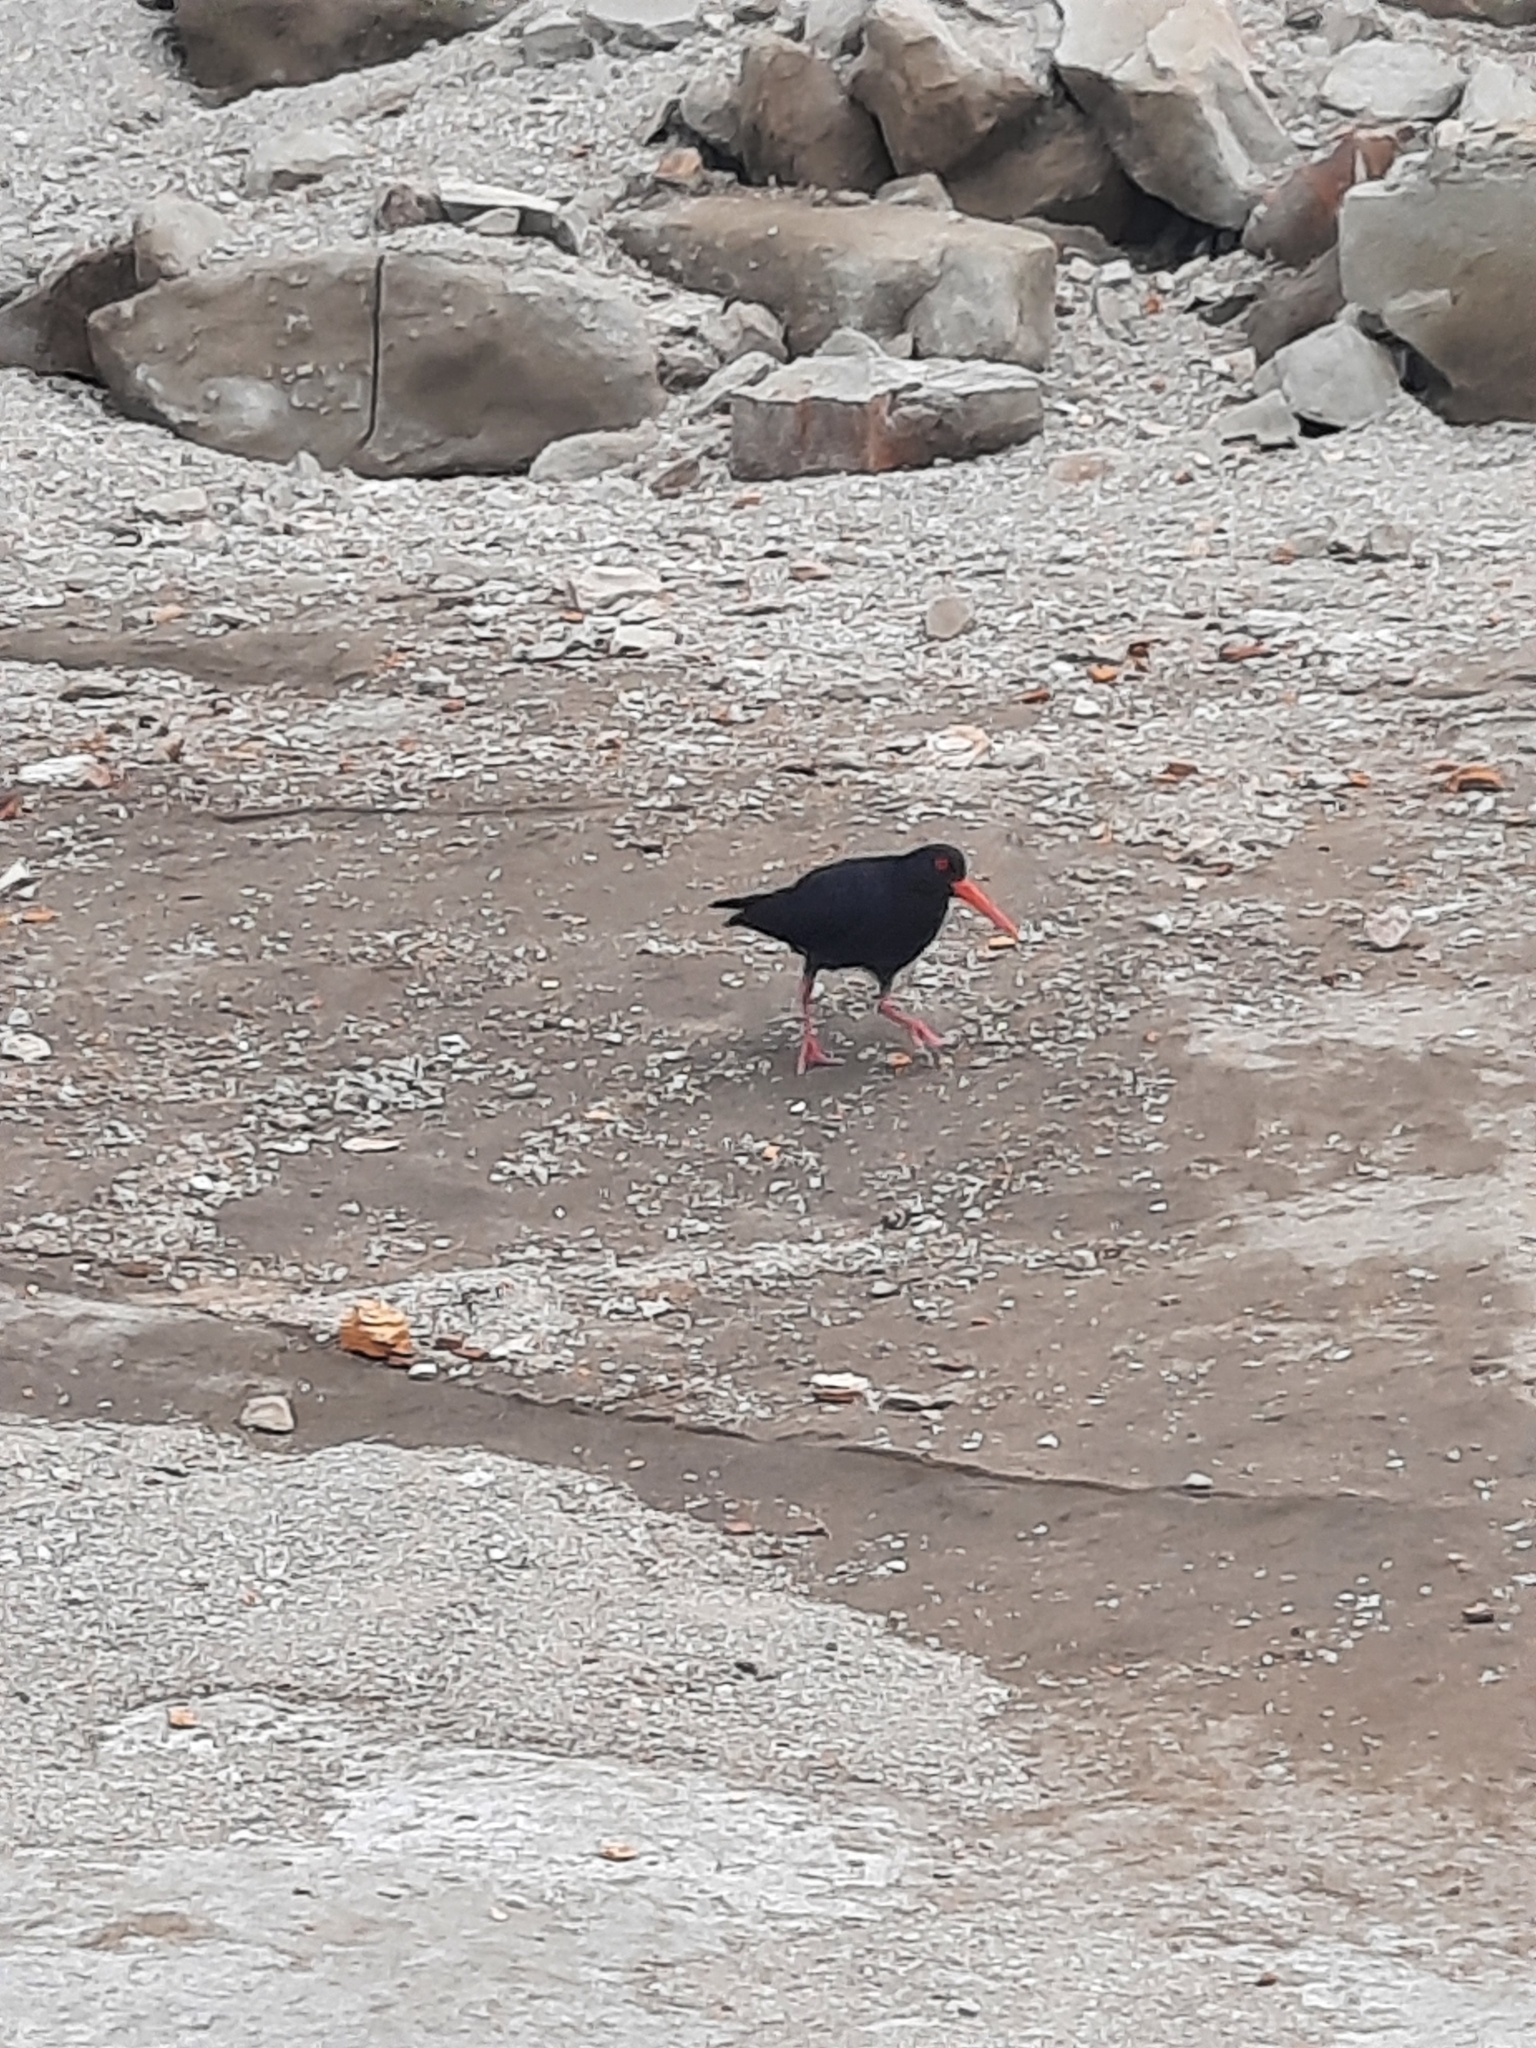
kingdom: Animalia
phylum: Chordata
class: Aves
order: Charadriiformes
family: Haematopodidae
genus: Haematopus
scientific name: Haematopus unicolor
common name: Variable oystercatcher
